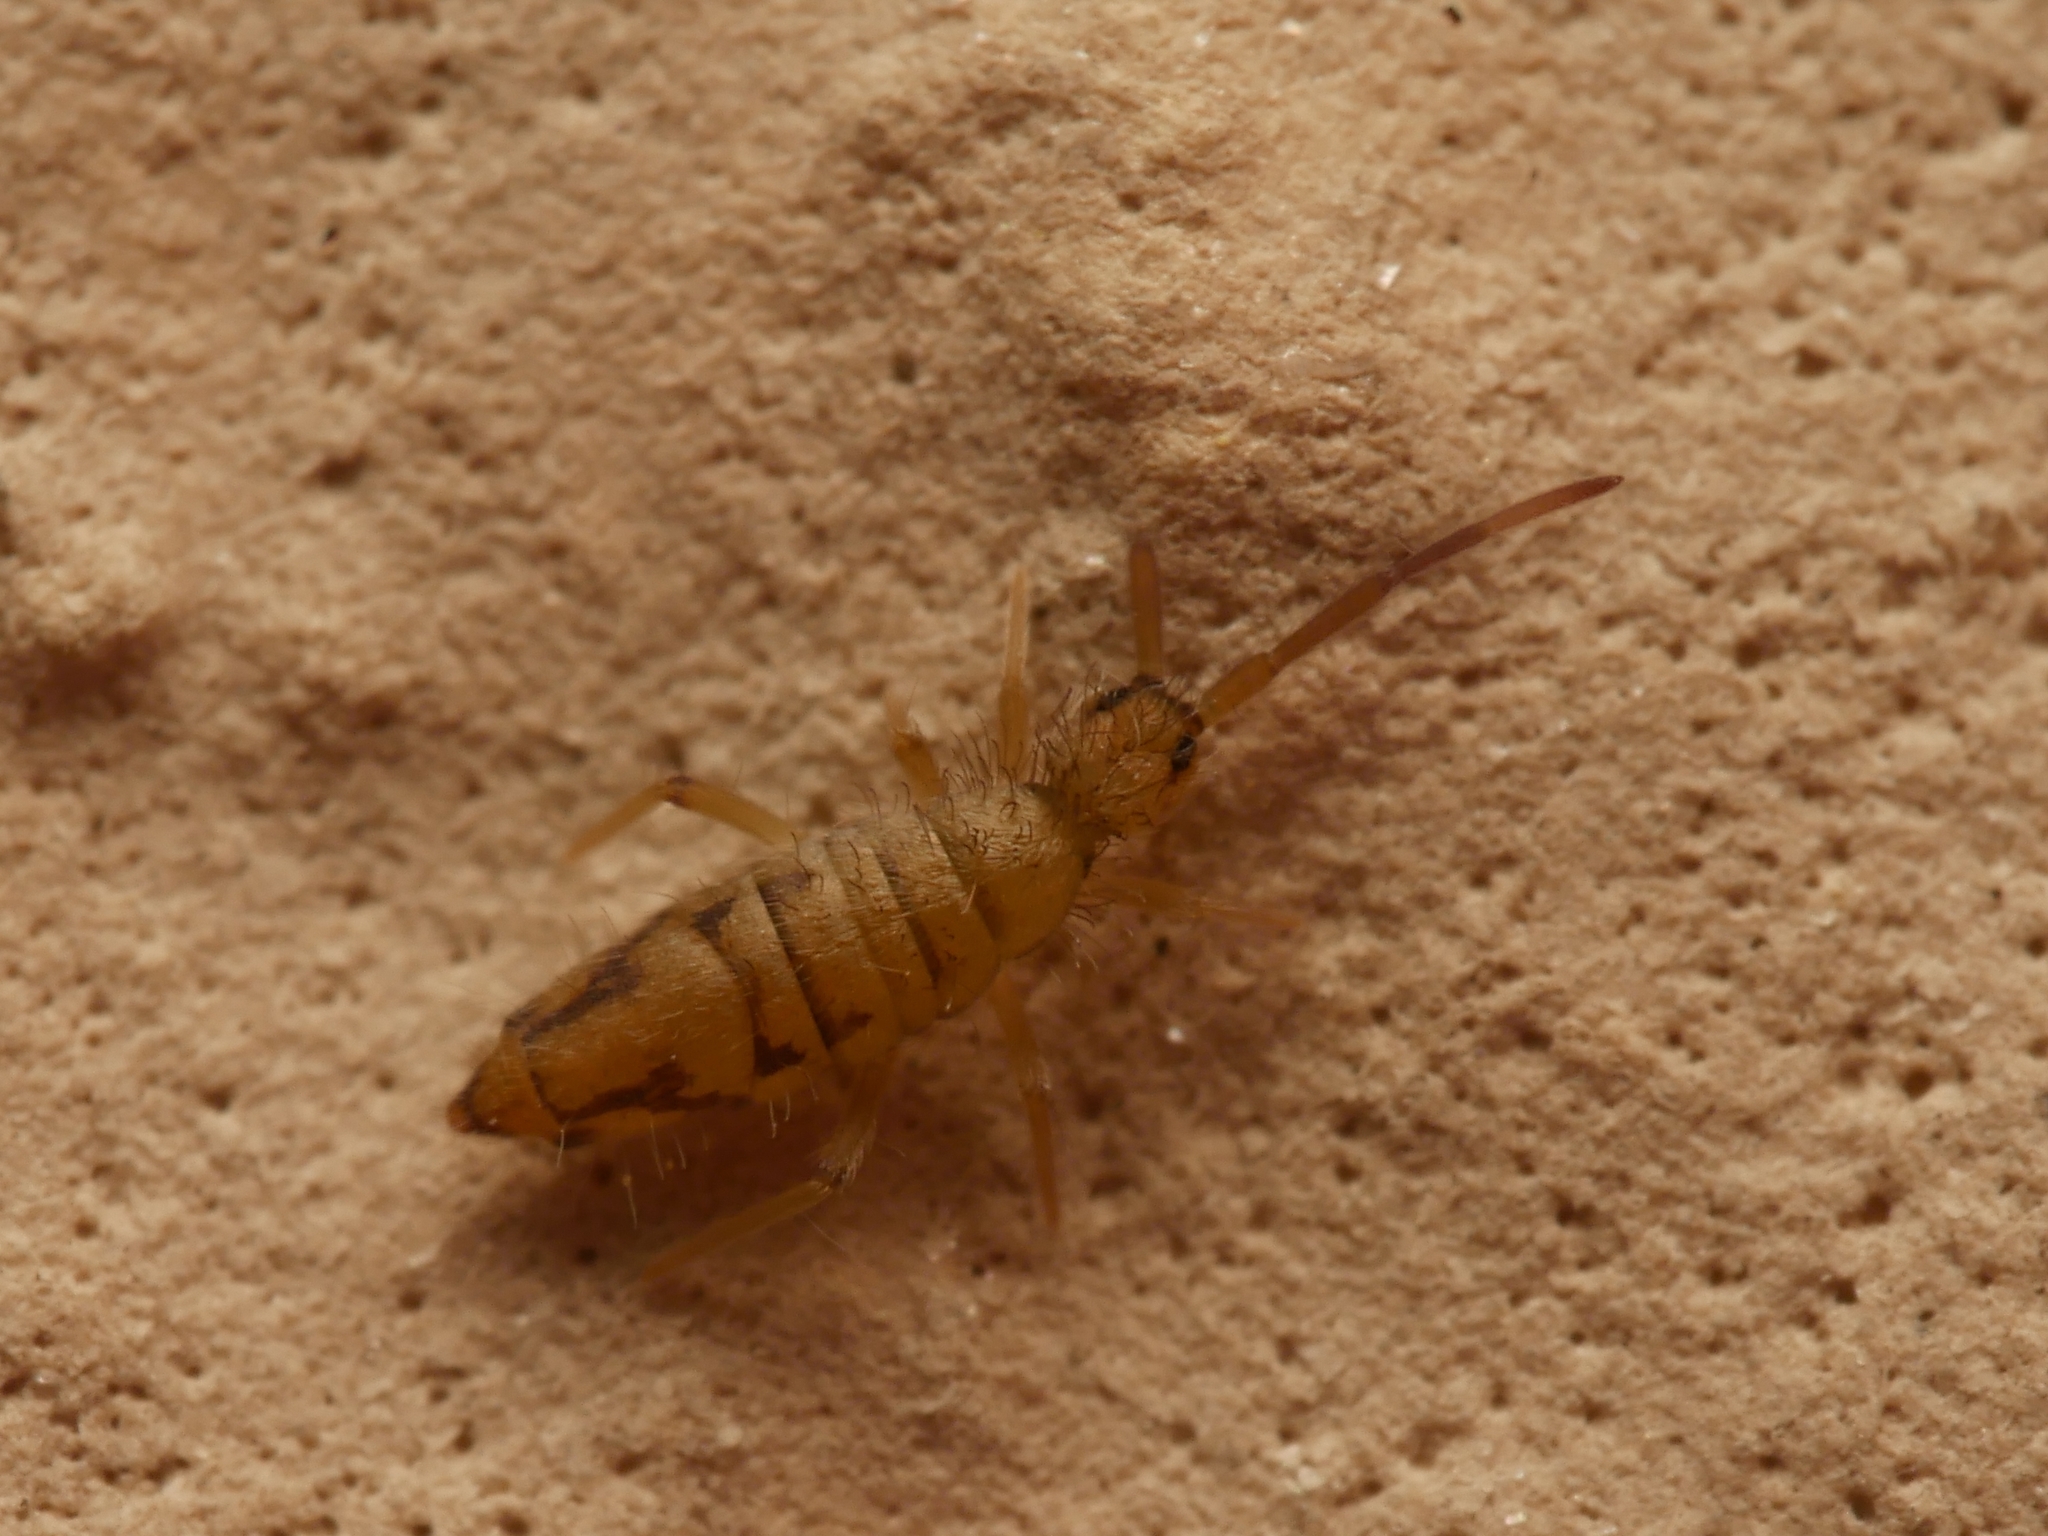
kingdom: Animalia
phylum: Arthropoda
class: Collembola
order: Entomobryomorpha
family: Entomobryidae
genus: Entomobrya
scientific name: Entomobrya nivalis
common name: Cosmopolitan springtail
